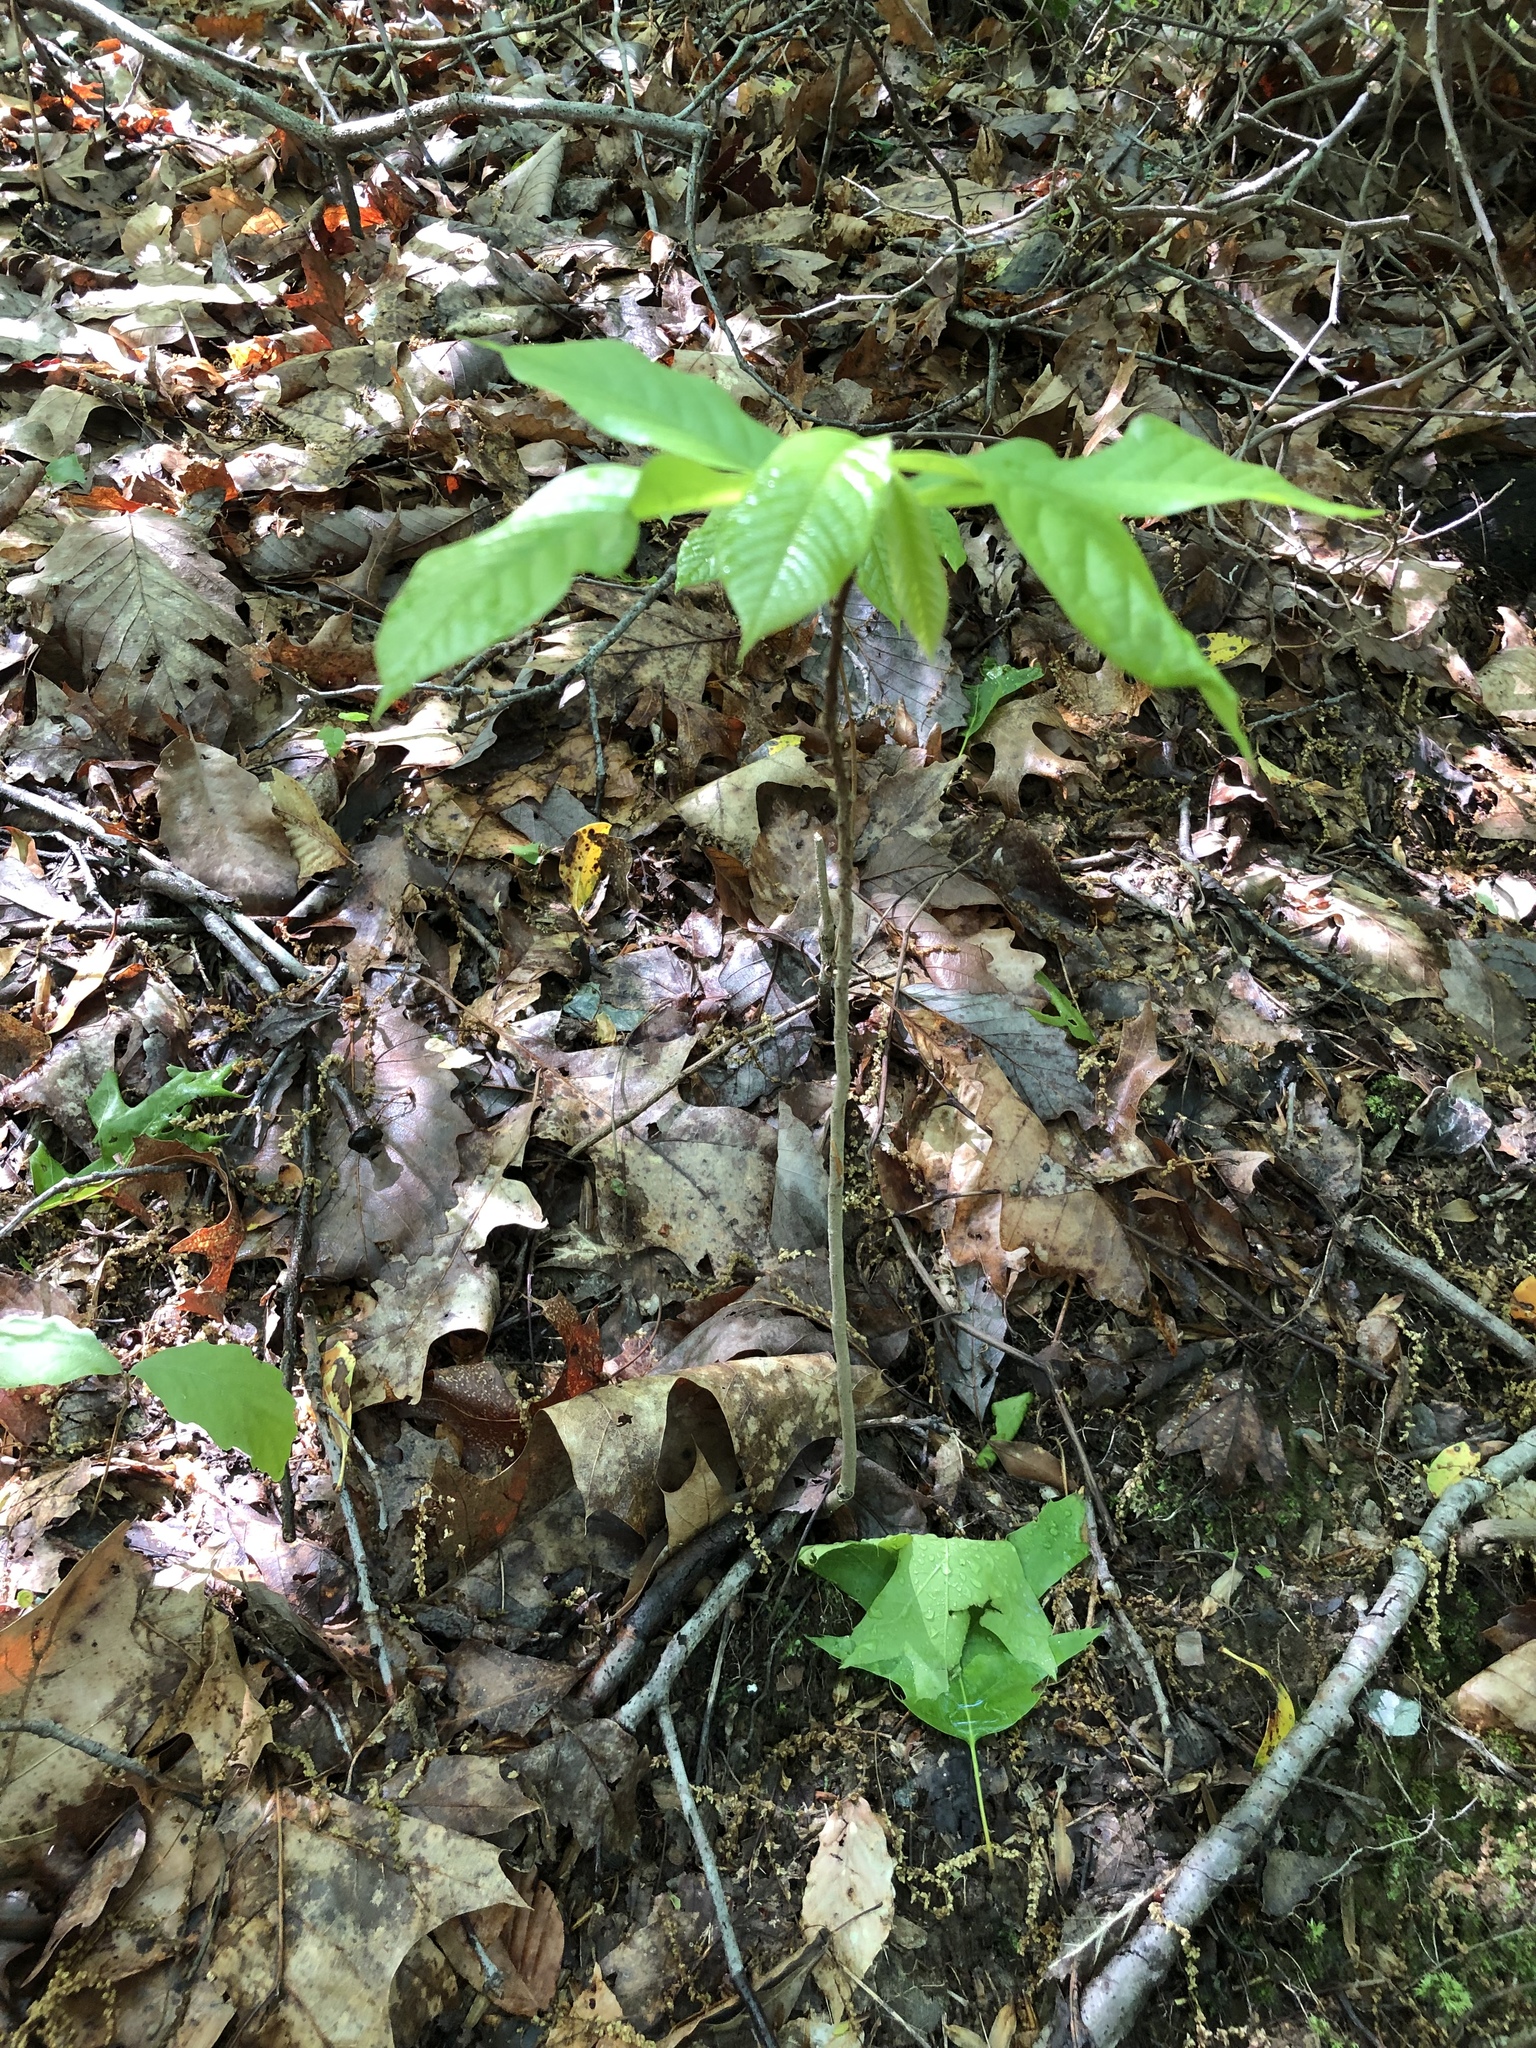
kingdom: Plantae
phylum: Tracheophyta
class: Magnoliopsida
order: Magnoliales
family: Annonaceae
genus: Asimina
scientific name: Asimina triloba
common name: Dog-banana
